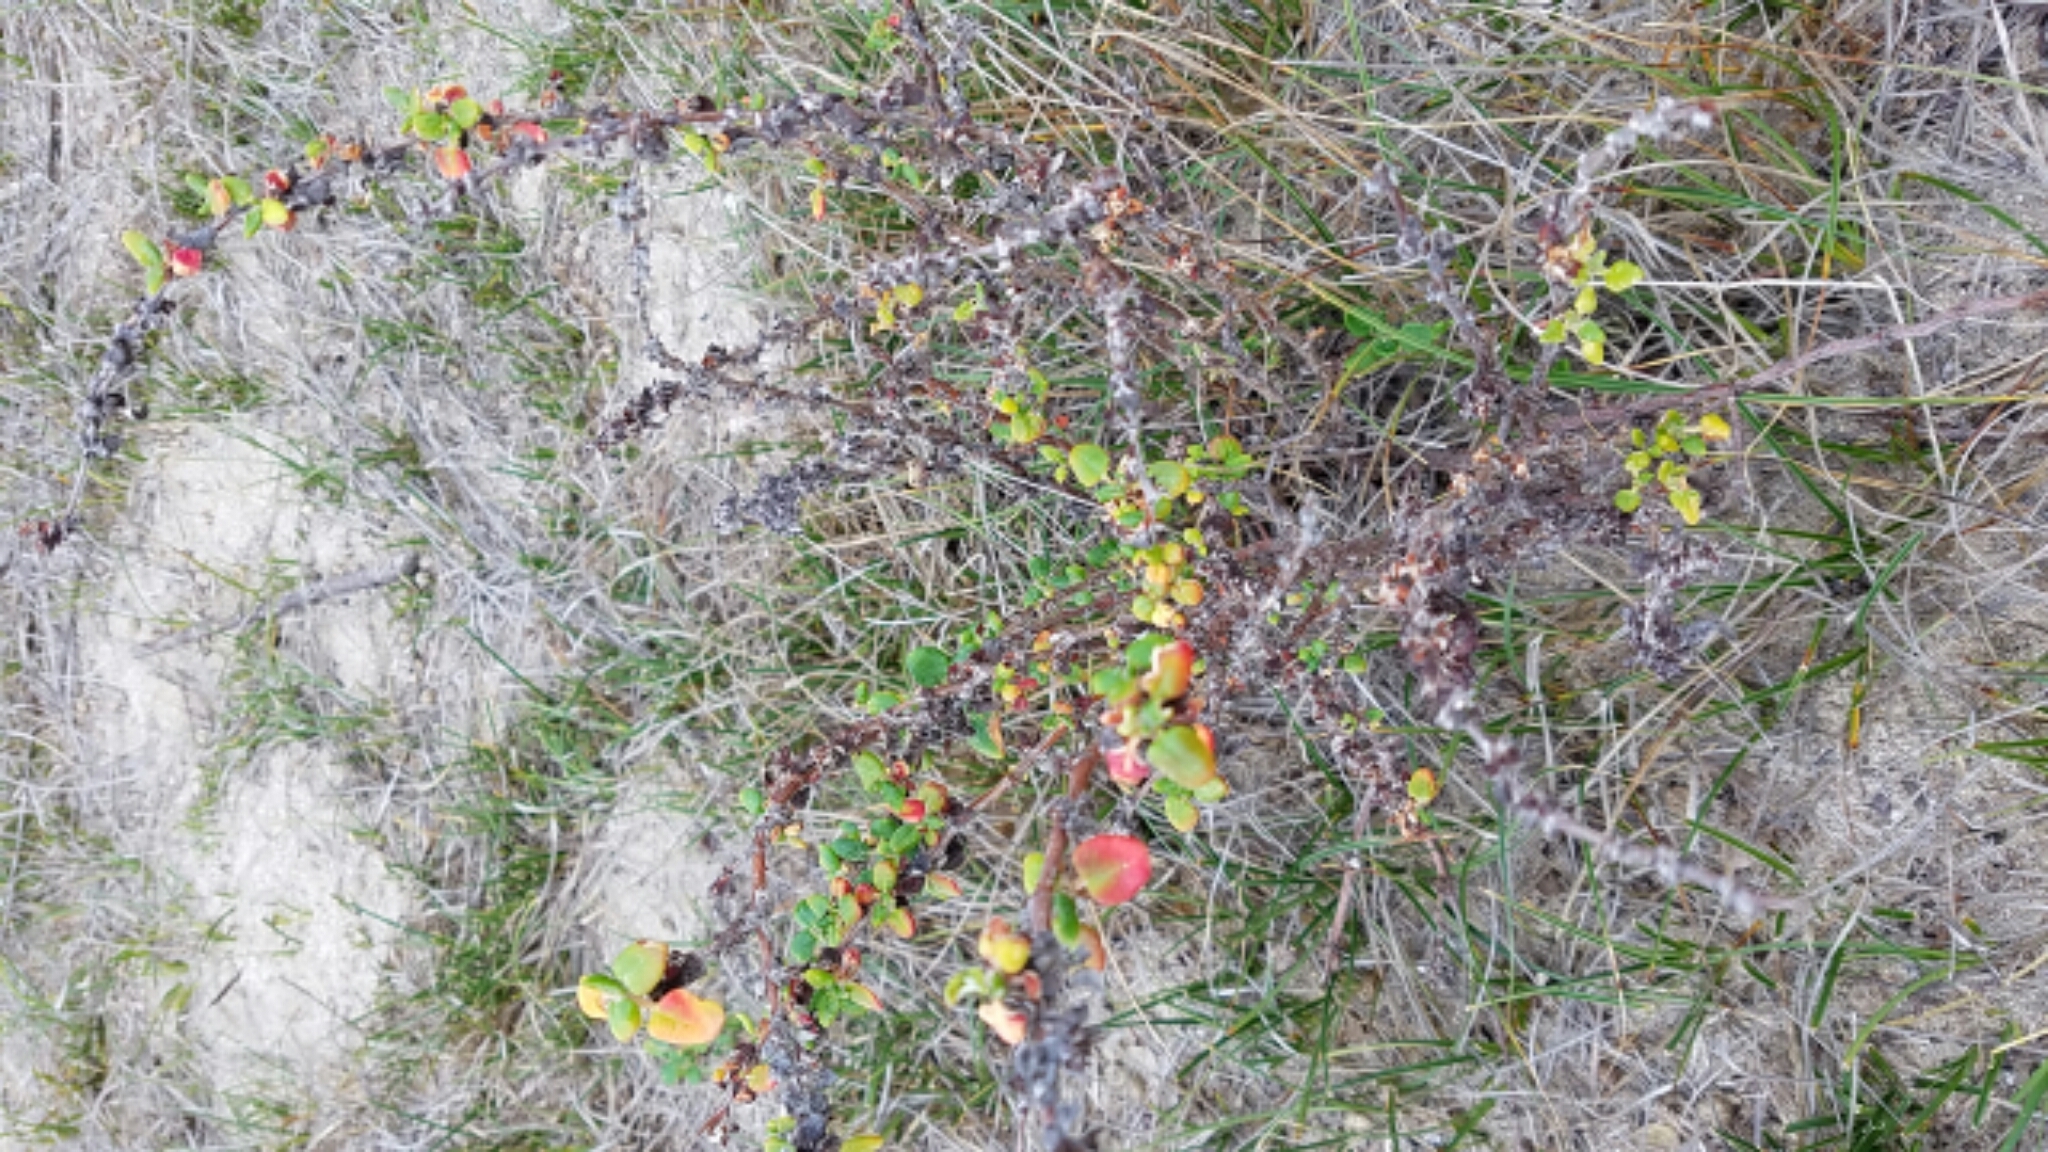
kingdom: Plantae
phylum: Tracheophyta
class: Magnoliopsida
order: Caryophyllales
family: Polygonaceae
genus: Eriogonum
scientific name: Eriogonum parvifolium
